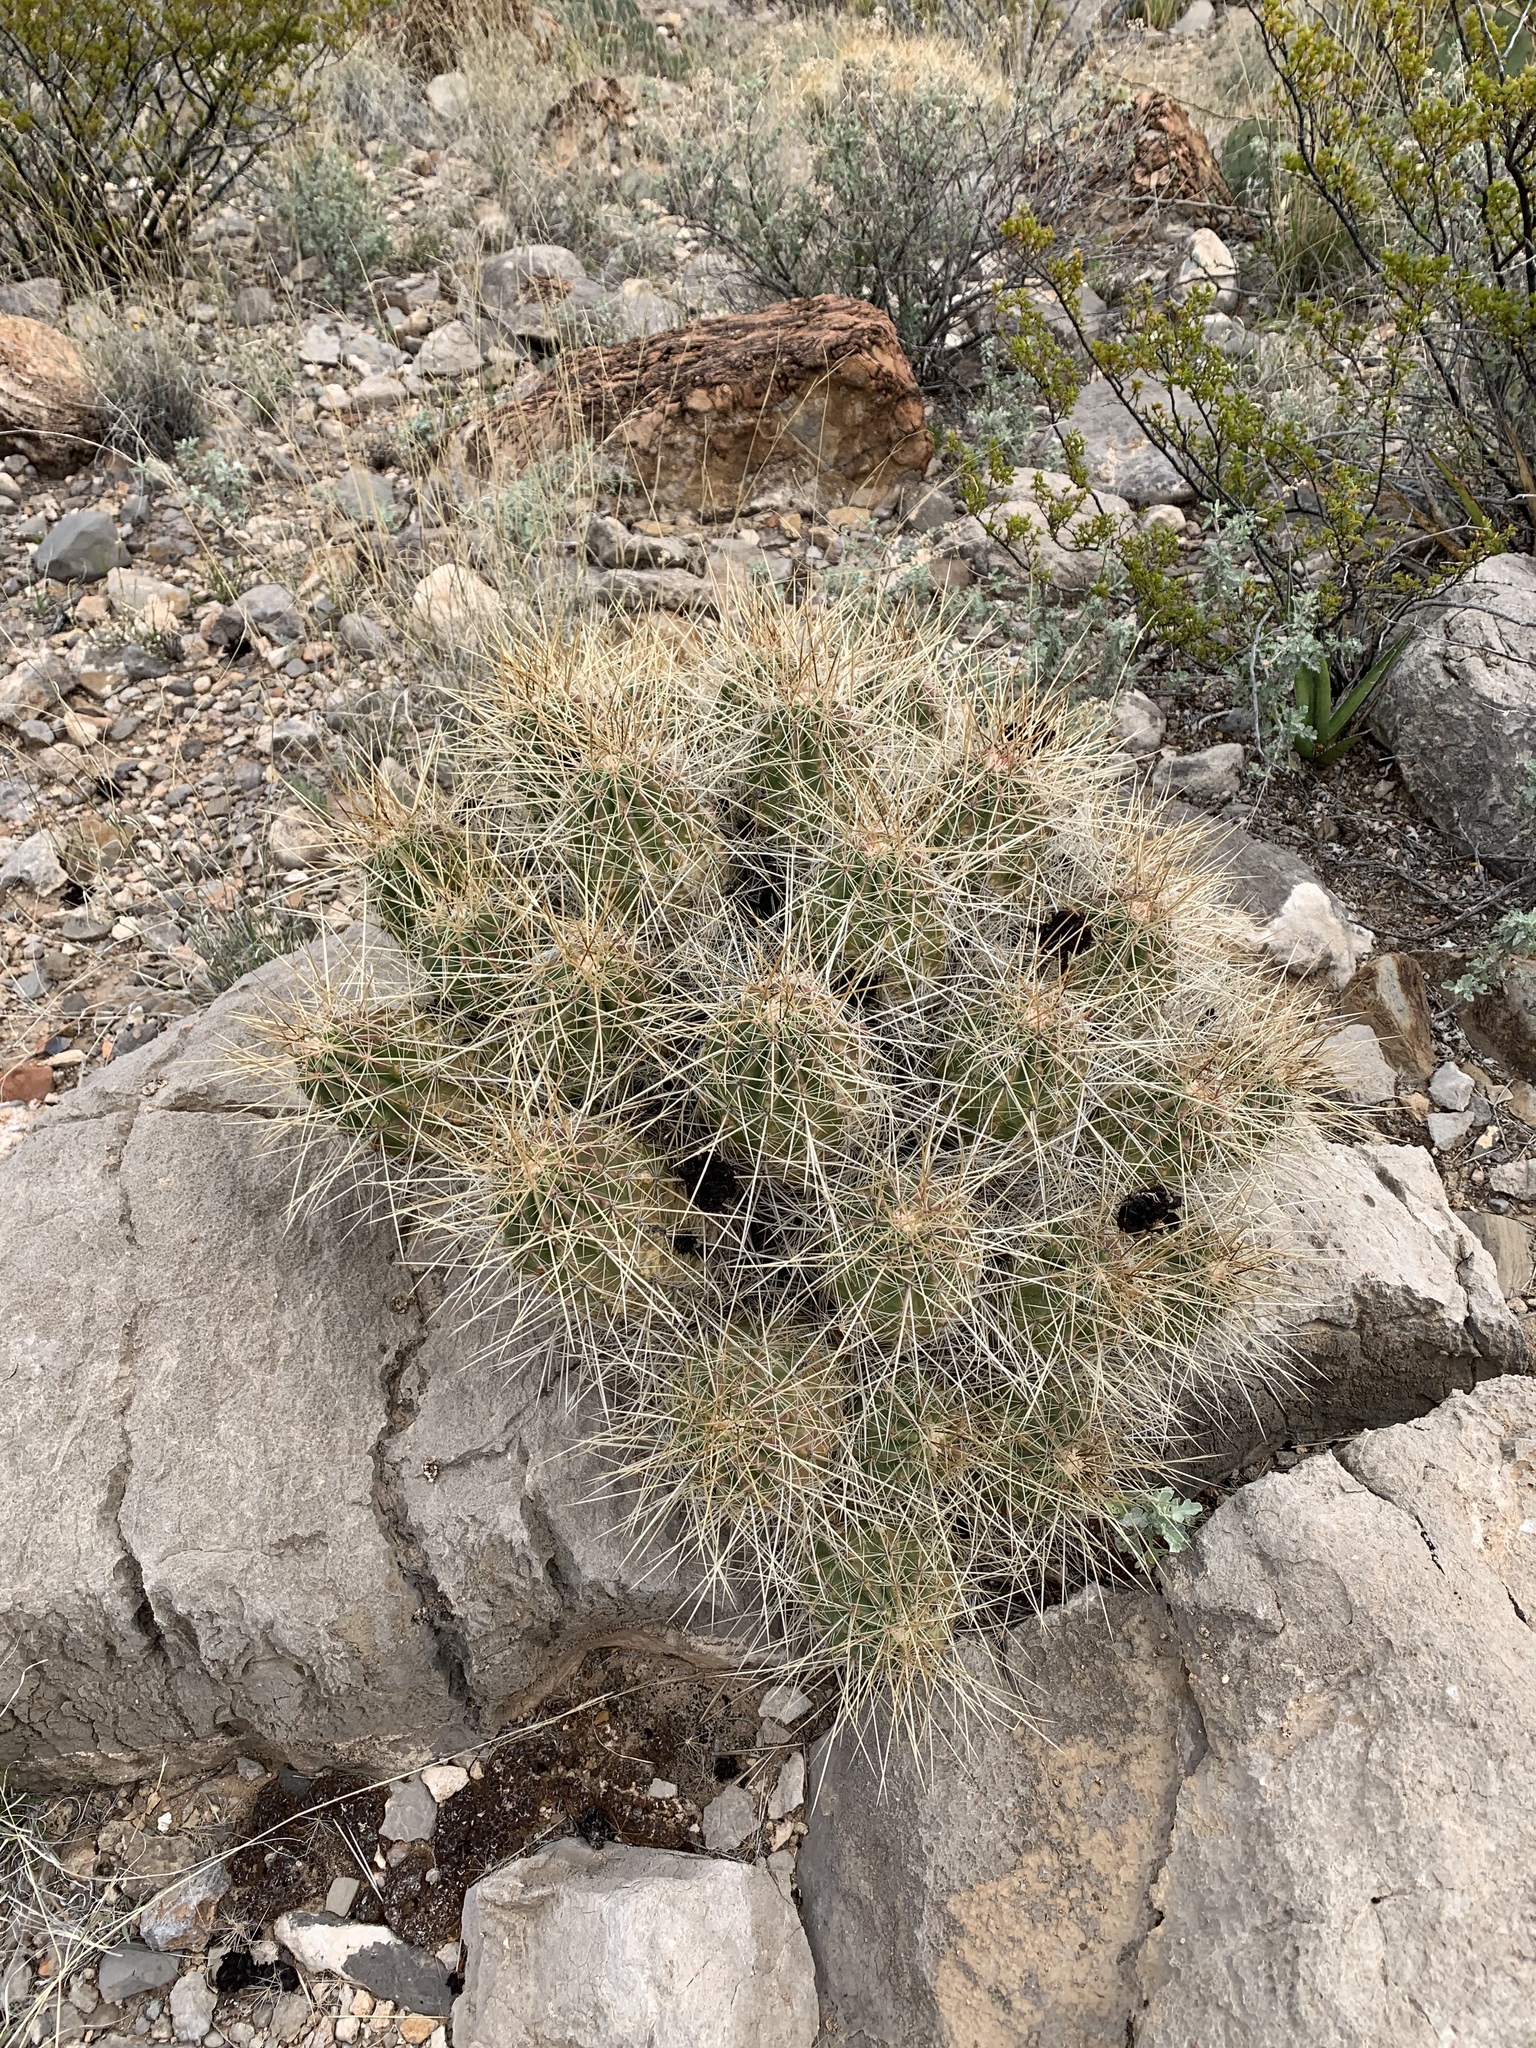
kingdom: Plantae
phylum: Tracheophyta
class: Magnoliopsida
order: Caryophyllales
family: Cactaceae
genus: Echinocereus
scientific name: Echinocereus stramineus
